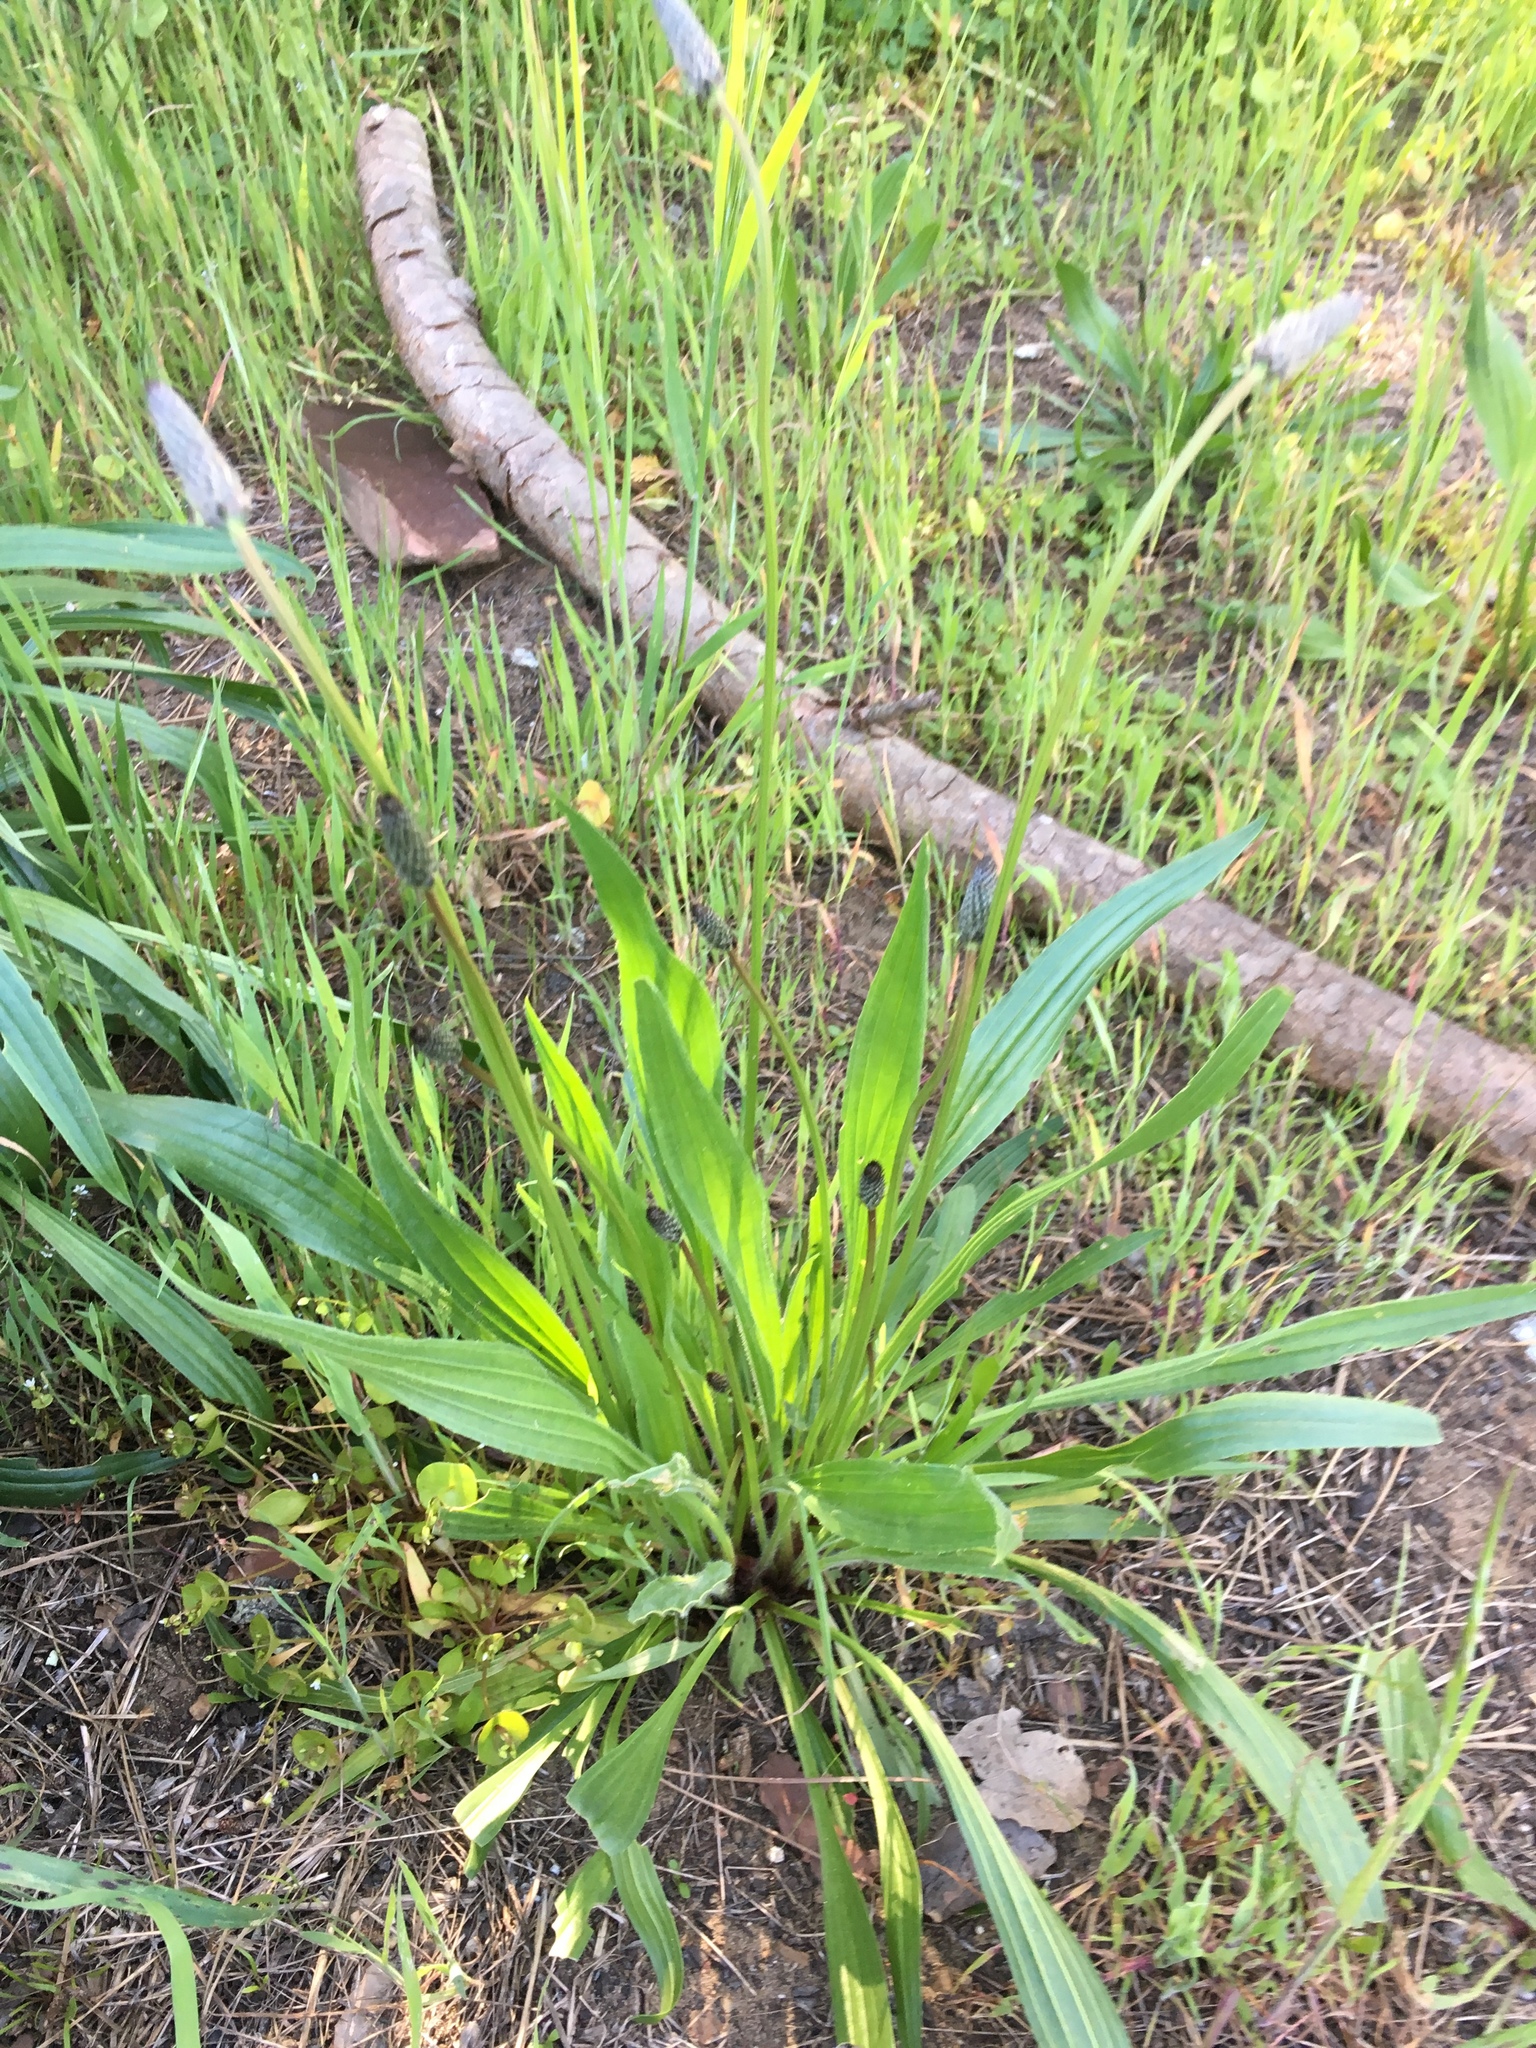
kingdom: Plantae
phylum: Tracheophyta
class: Magnoliopsida
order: Lamiales
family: Plantaginaceae
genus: Plantago
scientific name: Plantago lanceolata
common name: Ribwort plantain
